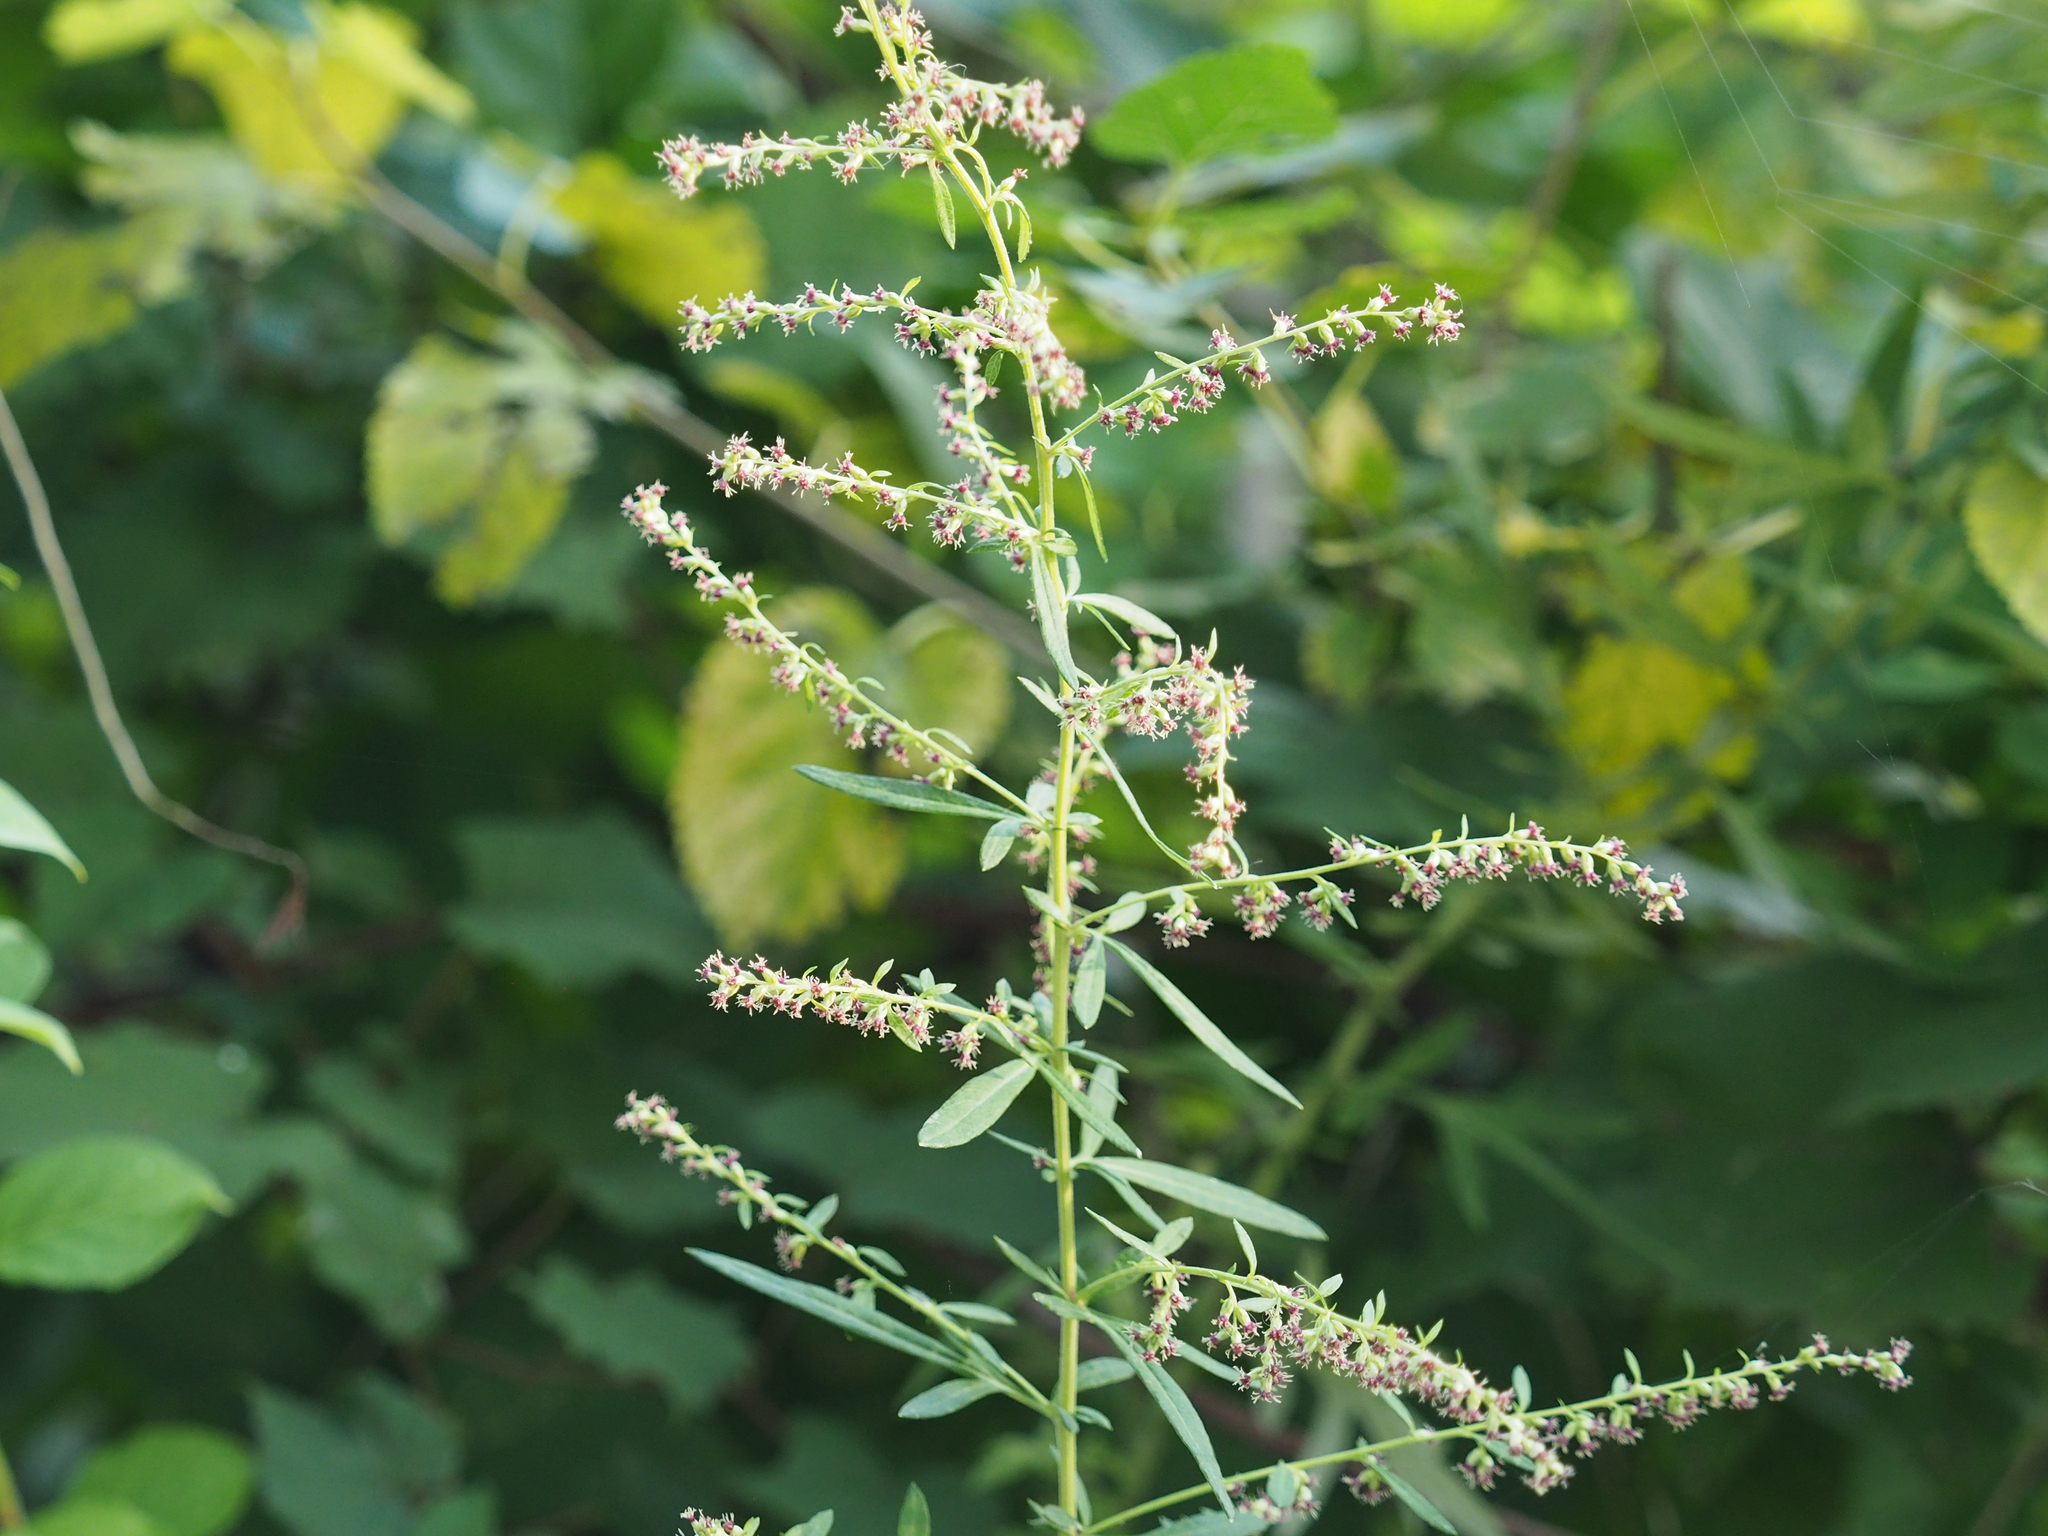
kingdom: Plantae
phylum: Tracheophyta
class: Magnoliopsida
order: Asterales
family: Asteraceae
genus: Artemisia
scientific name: Artemisia vulgaris
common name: Mugwort
